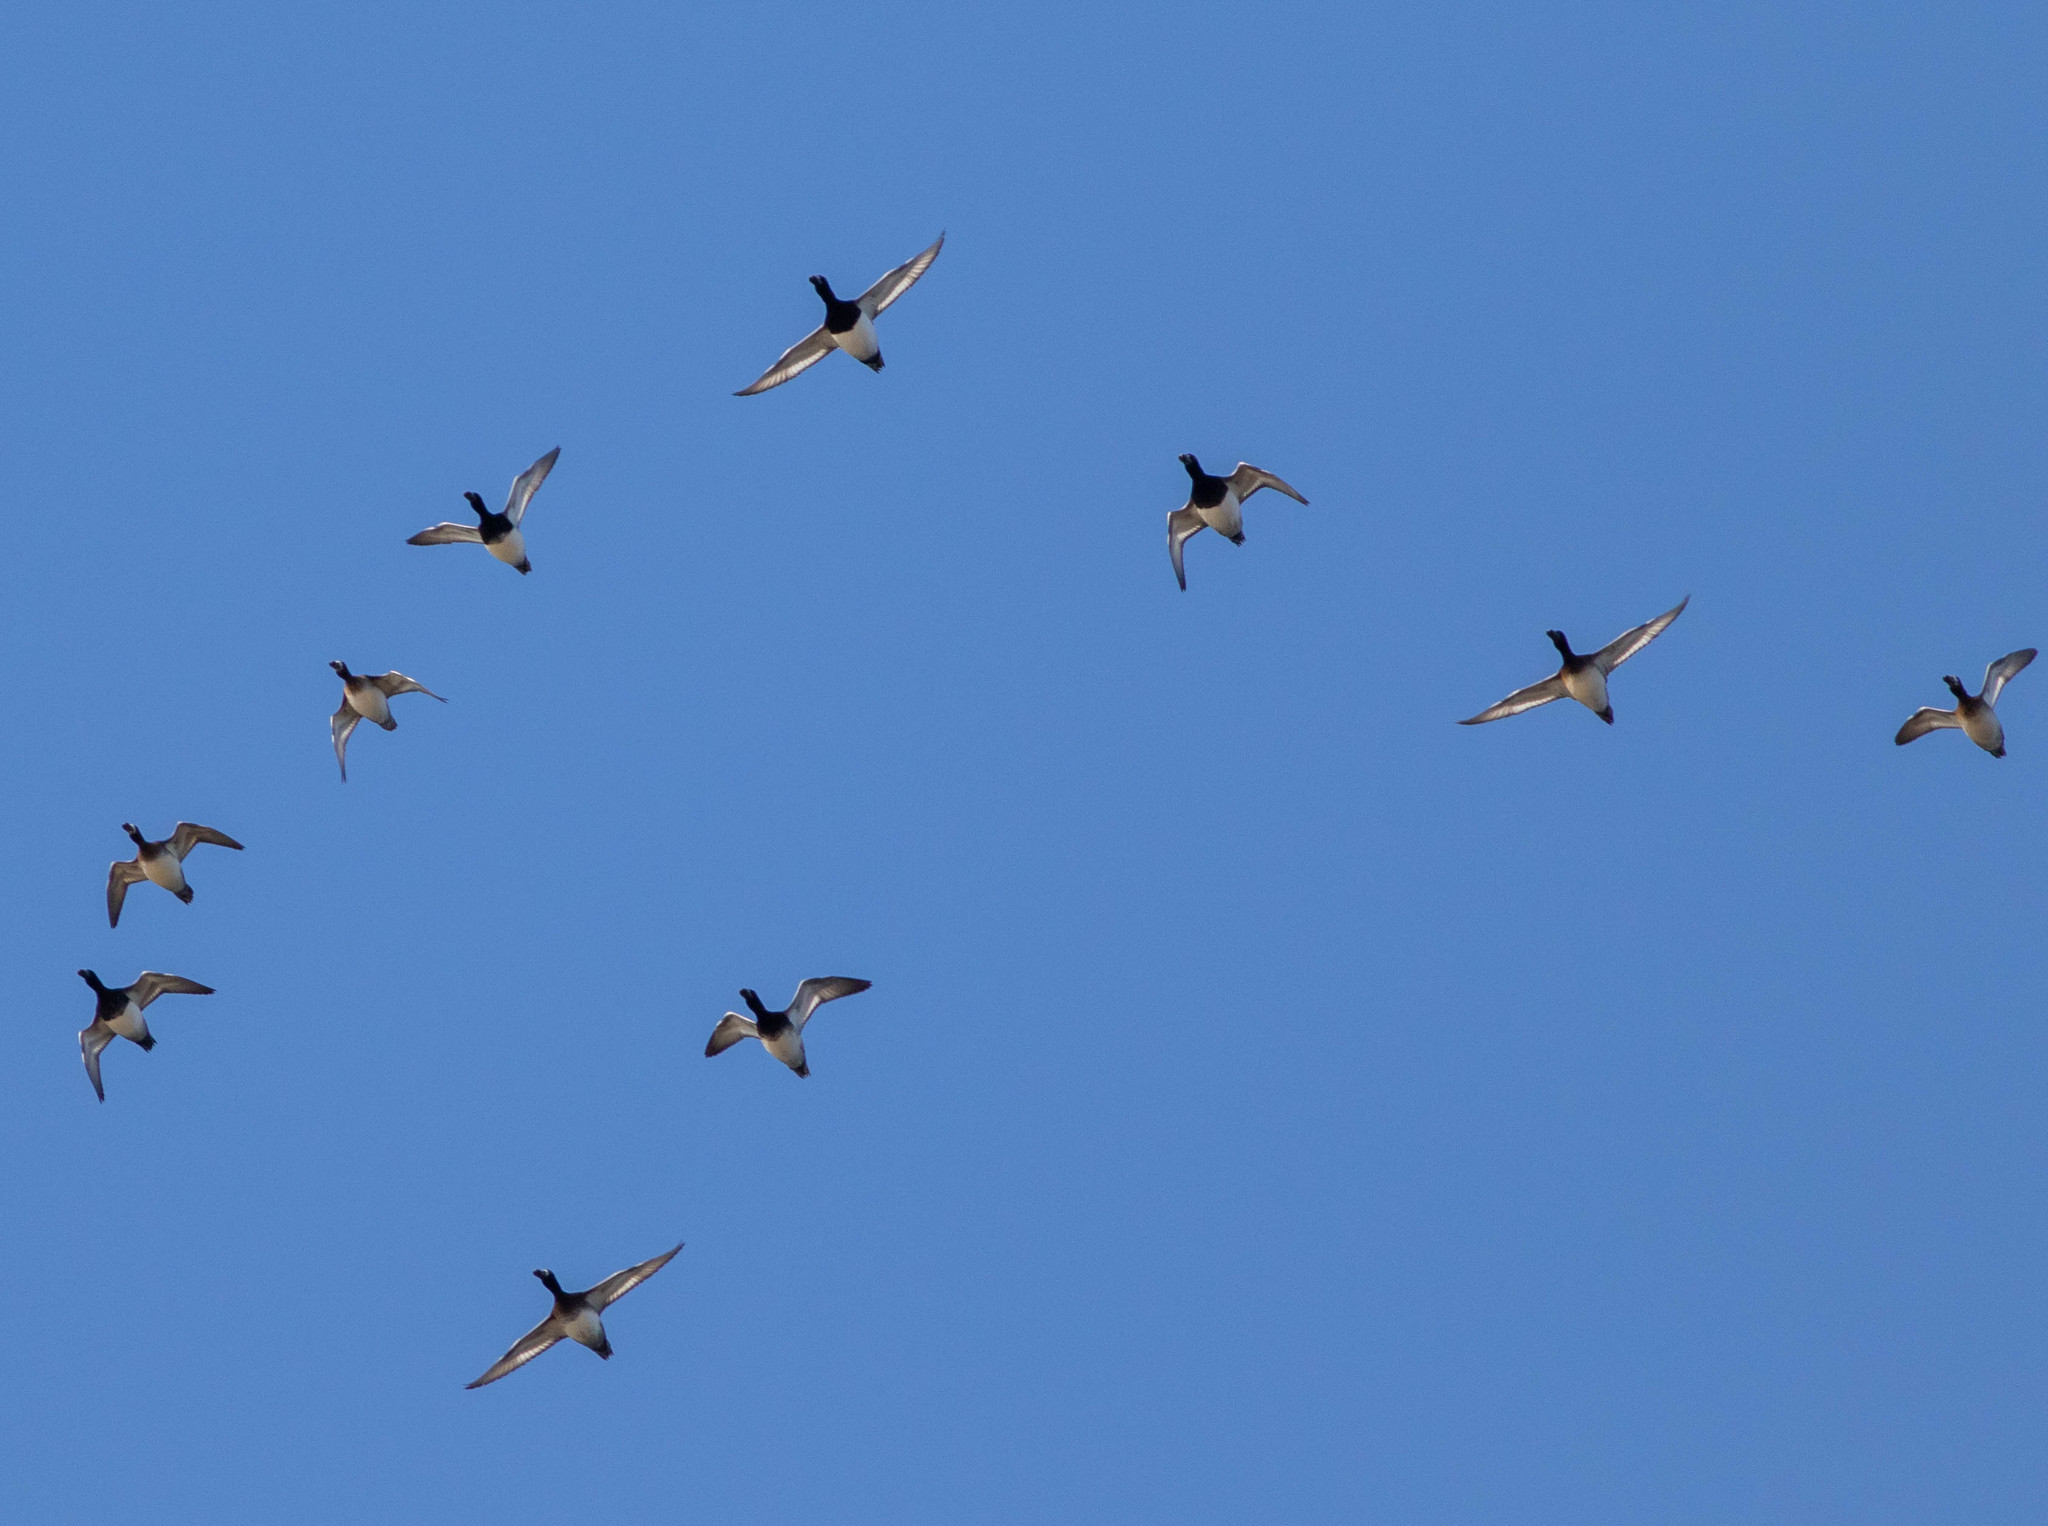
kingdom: Animalia
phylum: Chordata
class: Aves
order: Anseriformes
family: Anatidae
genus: Aythya
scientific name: Aythya affinis
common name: Lesser scaup
